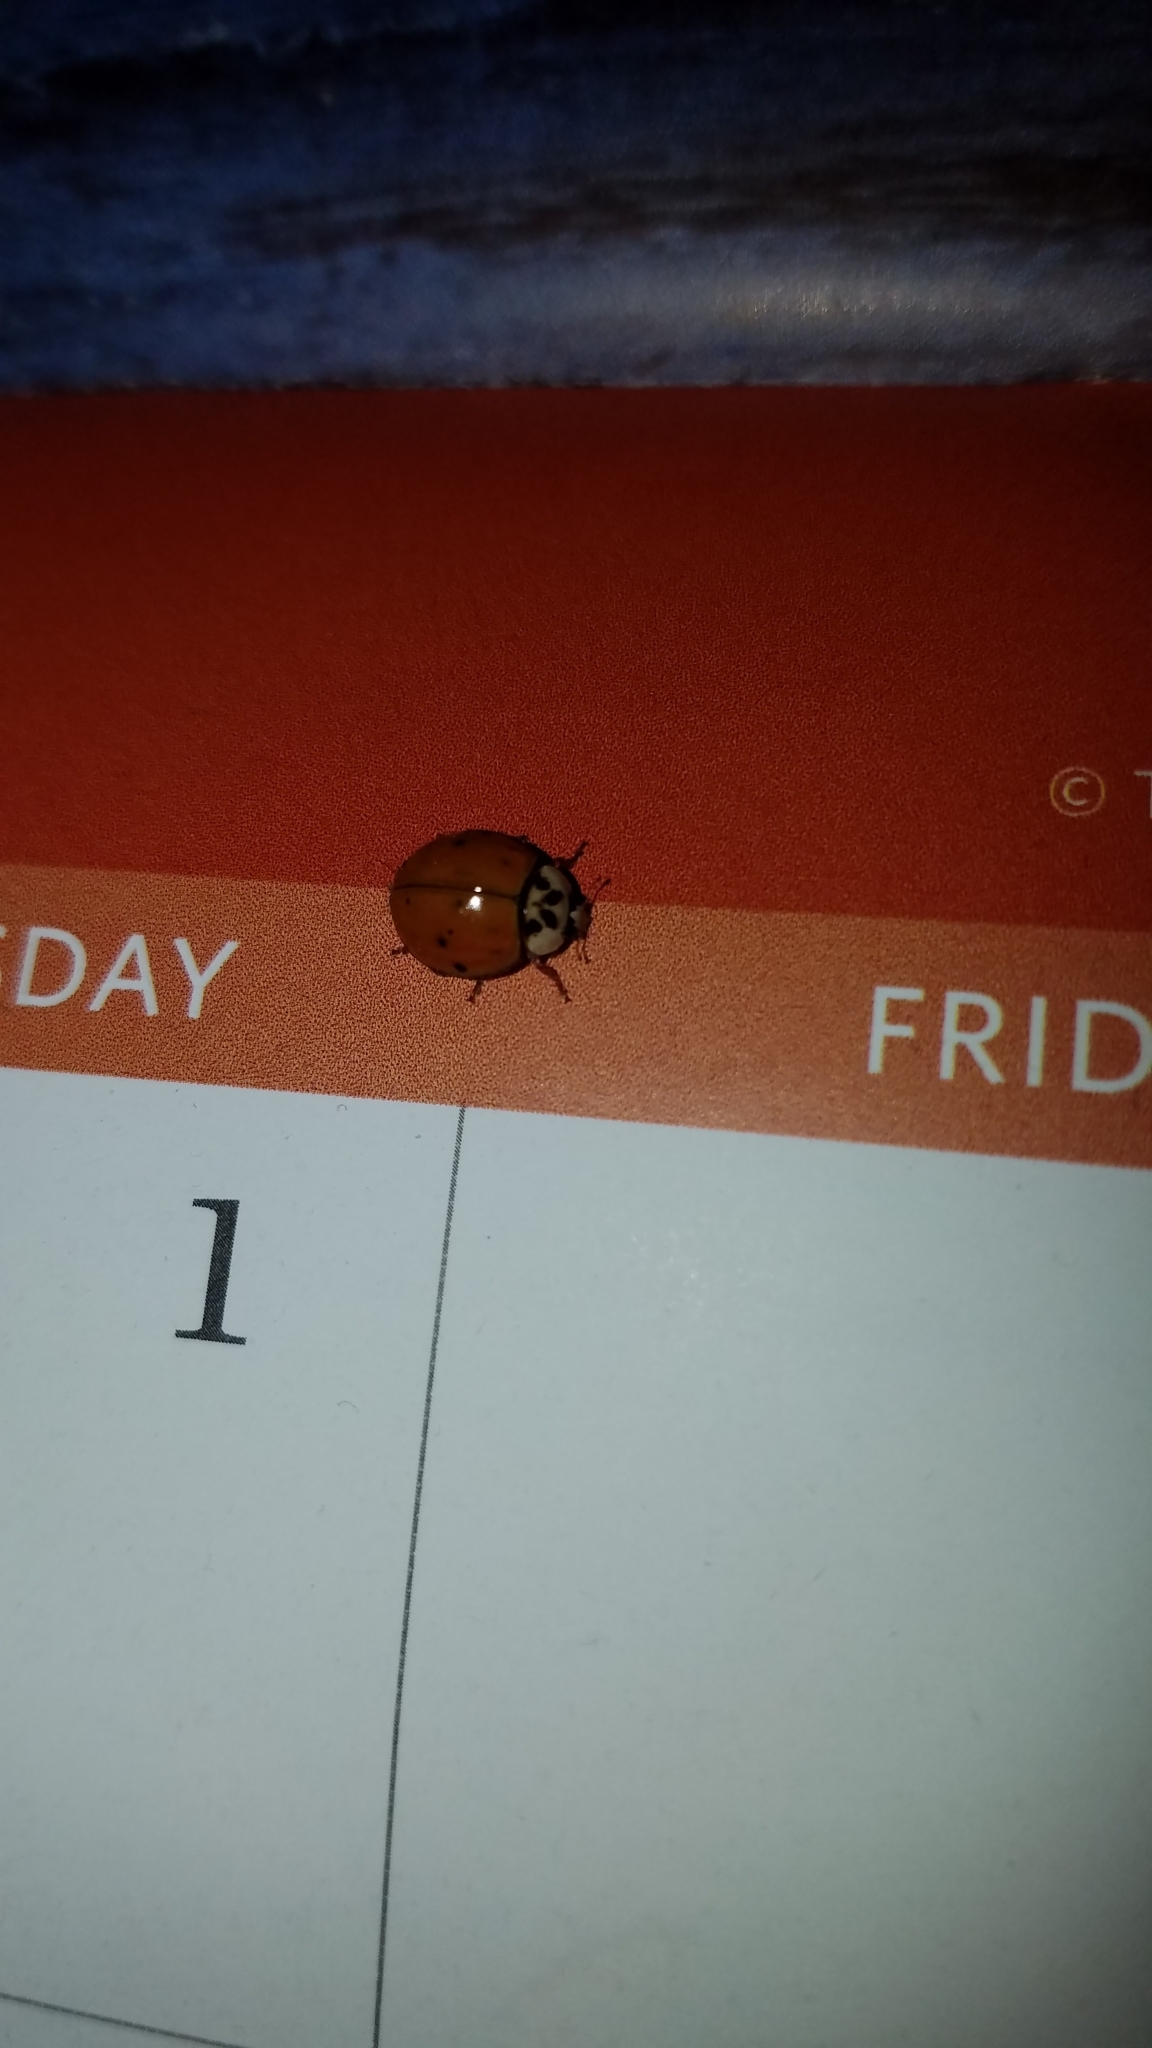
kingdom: Animalia
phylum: Arthropoda
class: Insecta
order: Coleoptera
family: Coccinellidae
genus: Harmonia
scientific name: Harmonia axyridis
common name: Harlequin ladybird
